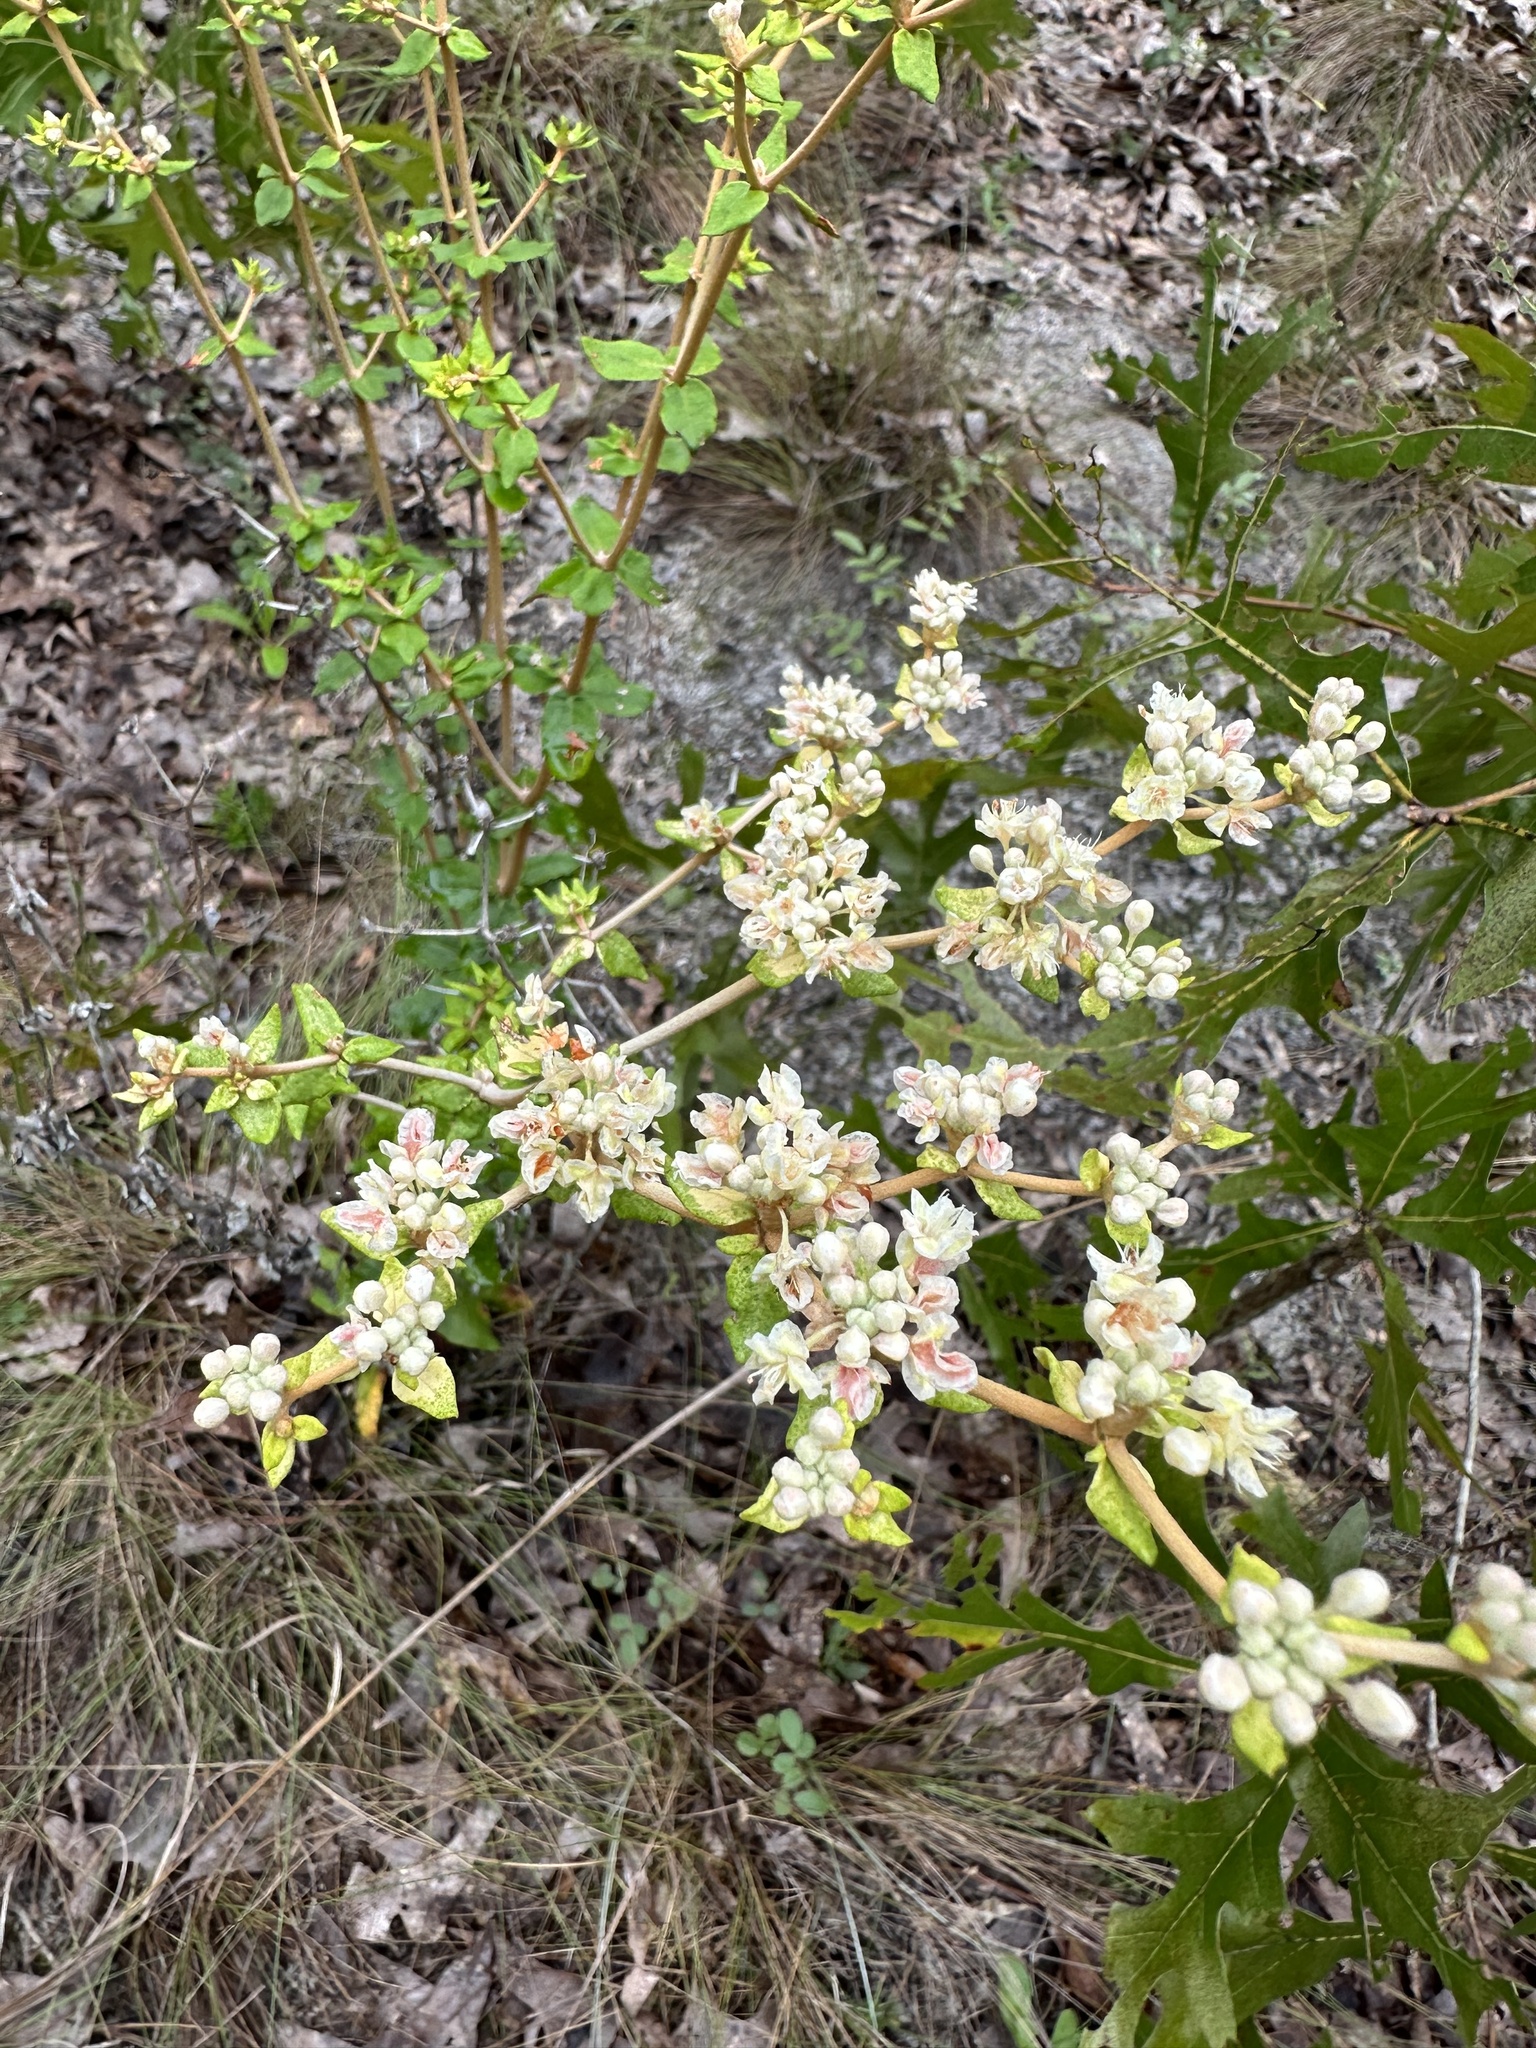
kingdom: Plantae
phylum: Tracheophyta
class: Magnoliopsida
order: Caryophyllales
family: Polygonaceae
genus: Eriogonum
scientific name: Eriogonum tomentosum
